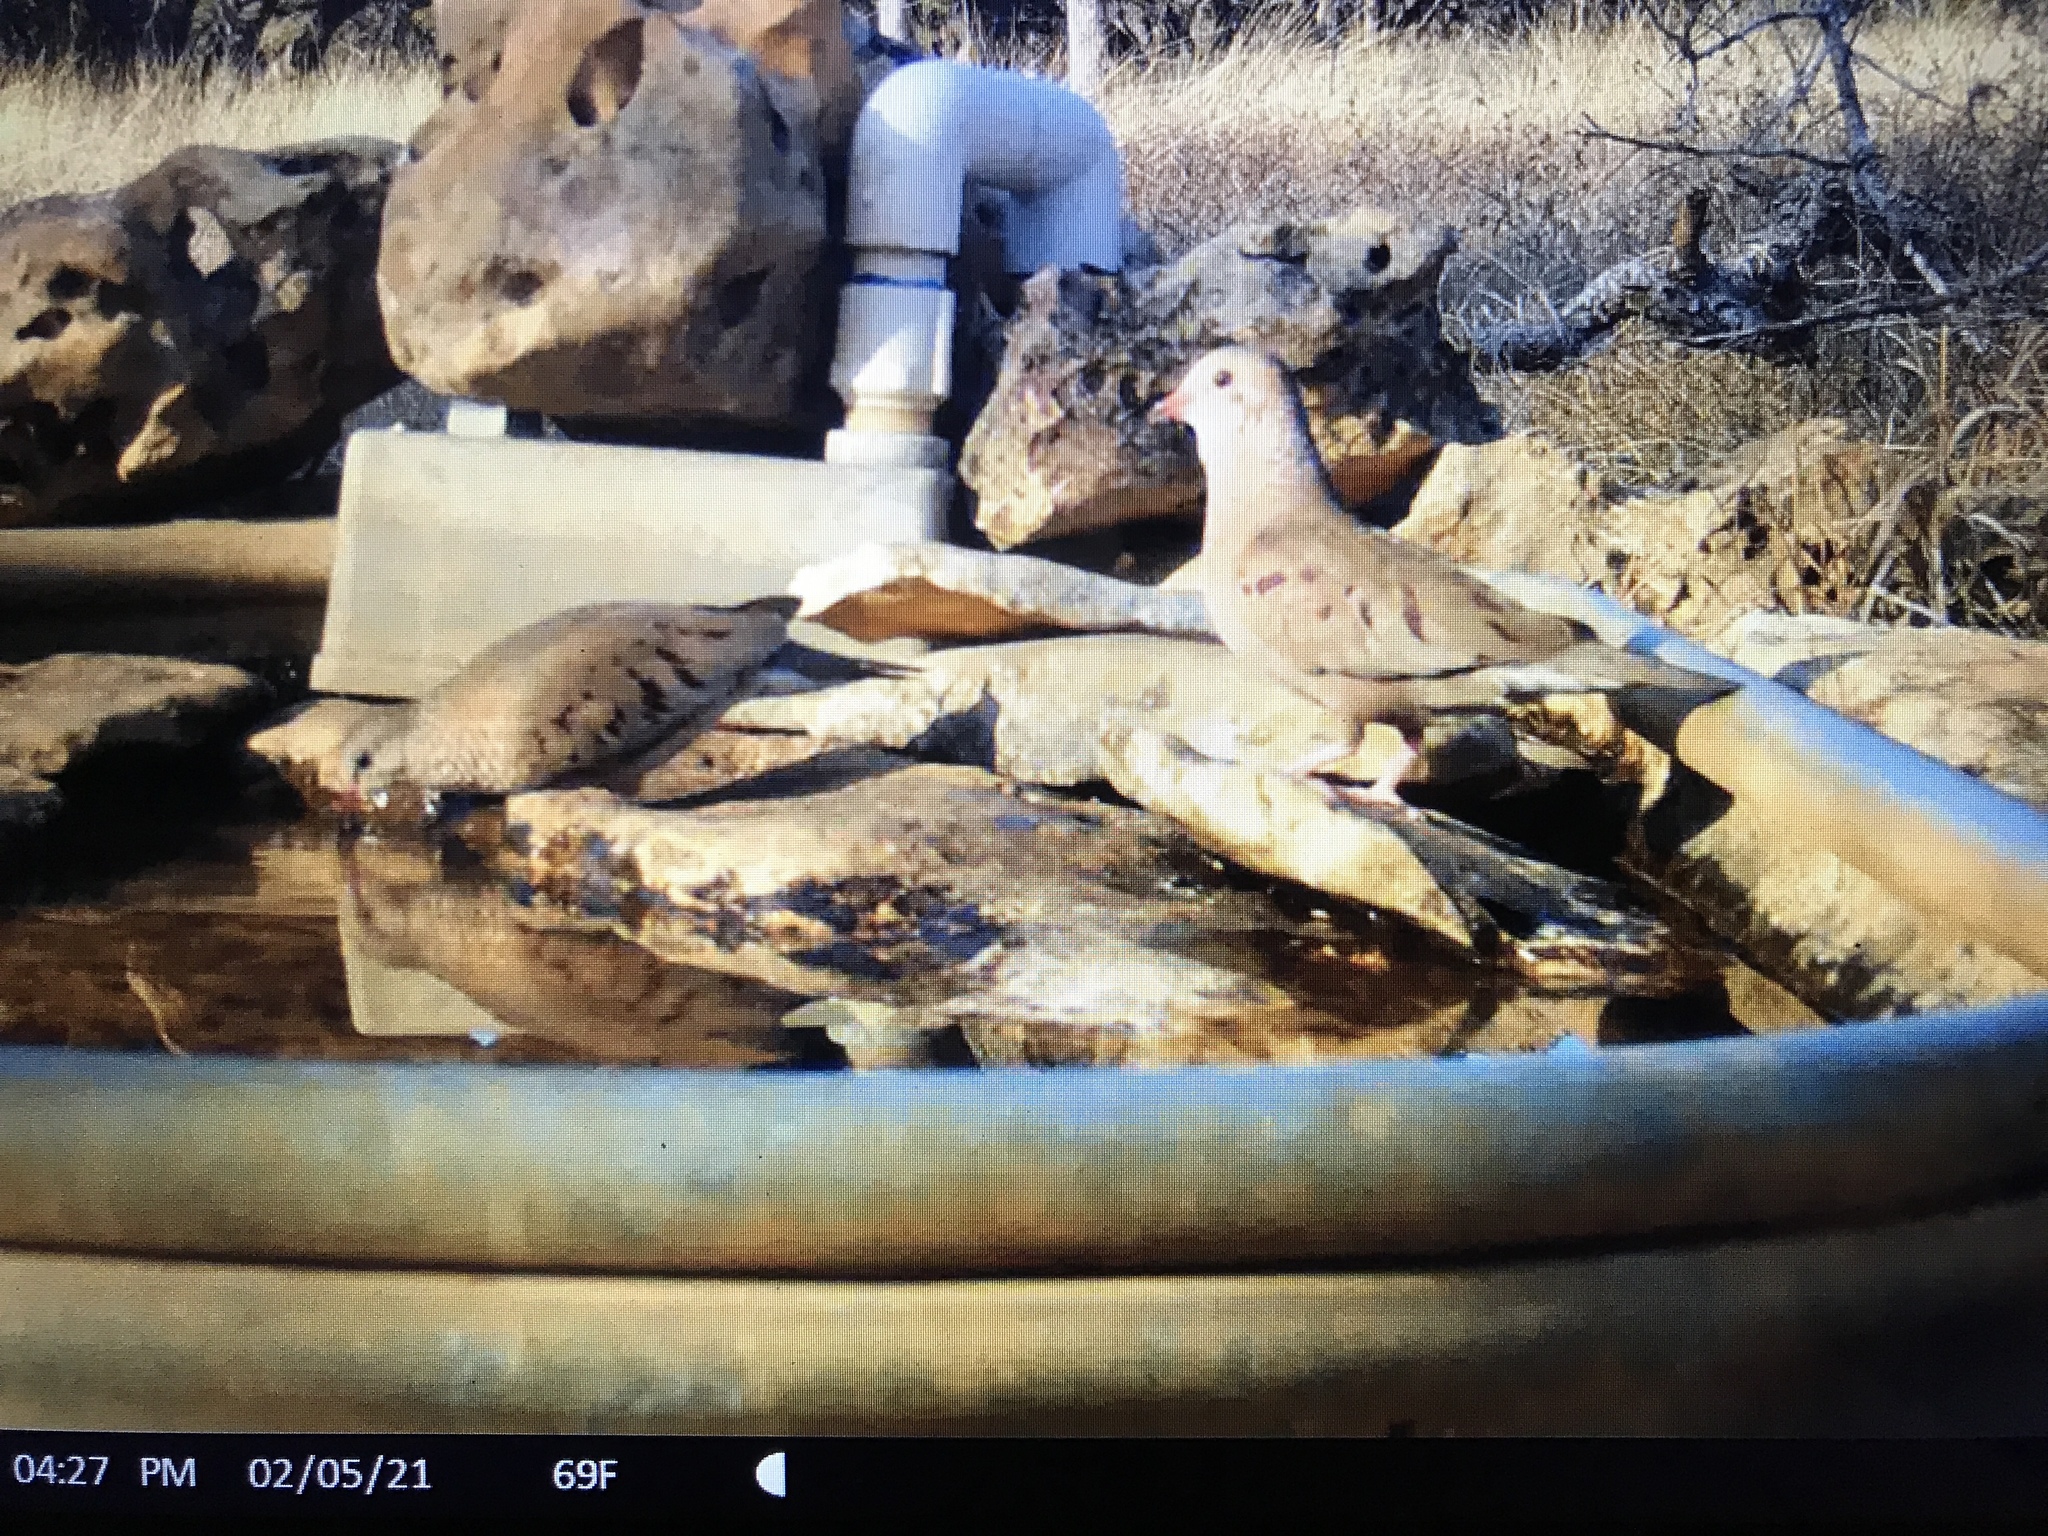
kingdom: Animalia
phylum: Chordata
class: Aves
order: Columbiformes
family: Columbidae
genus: Columbina
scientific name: Columbina passerina
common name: Common ground-dove
